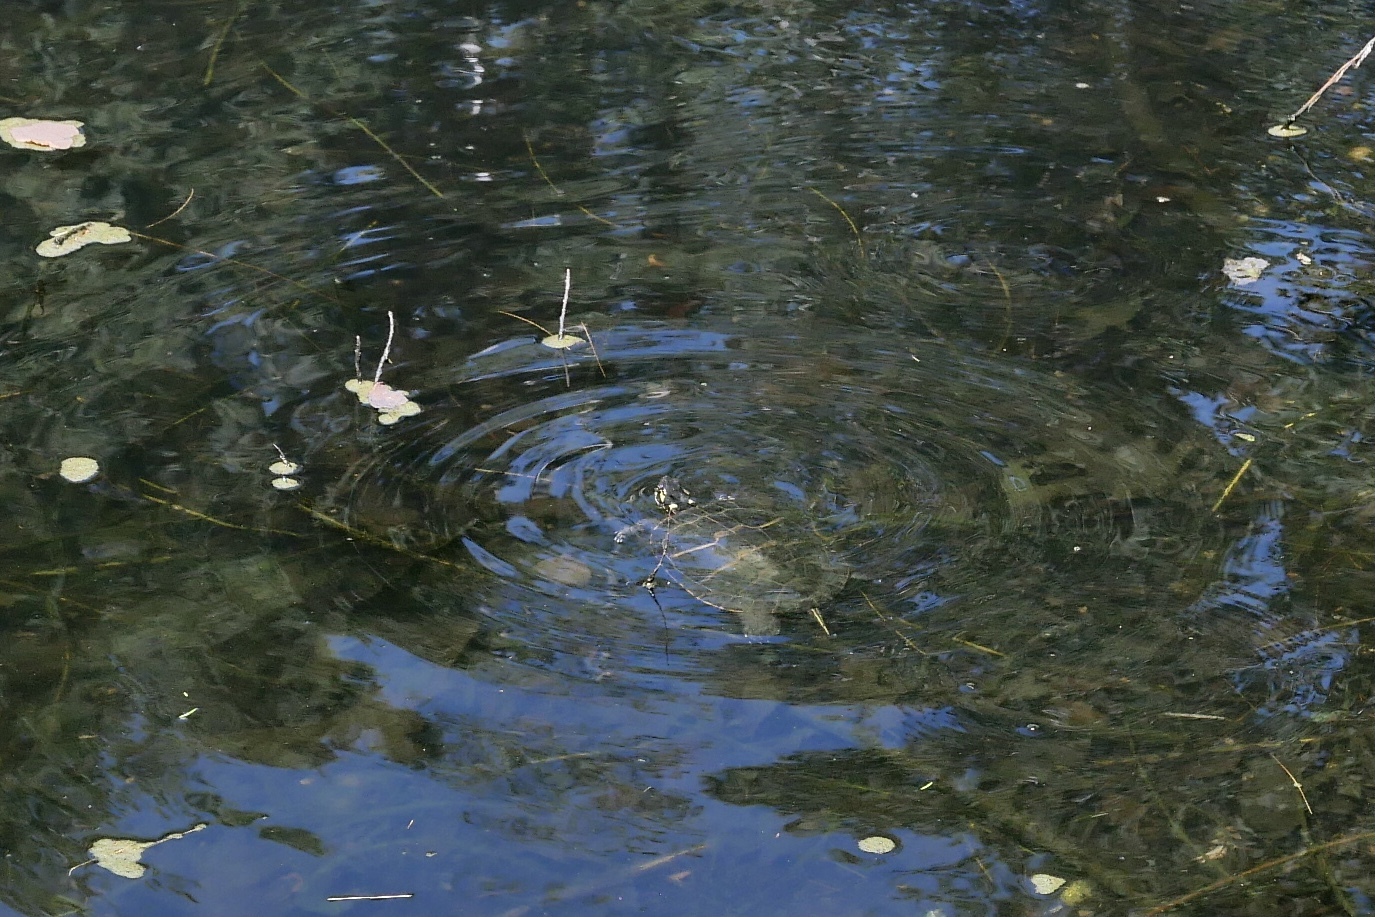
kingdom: Animalia
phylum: Chordata
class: Testudines
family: Emydidae
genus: Chrysemys
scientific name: Chrysemys picta
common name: Painted turtle
